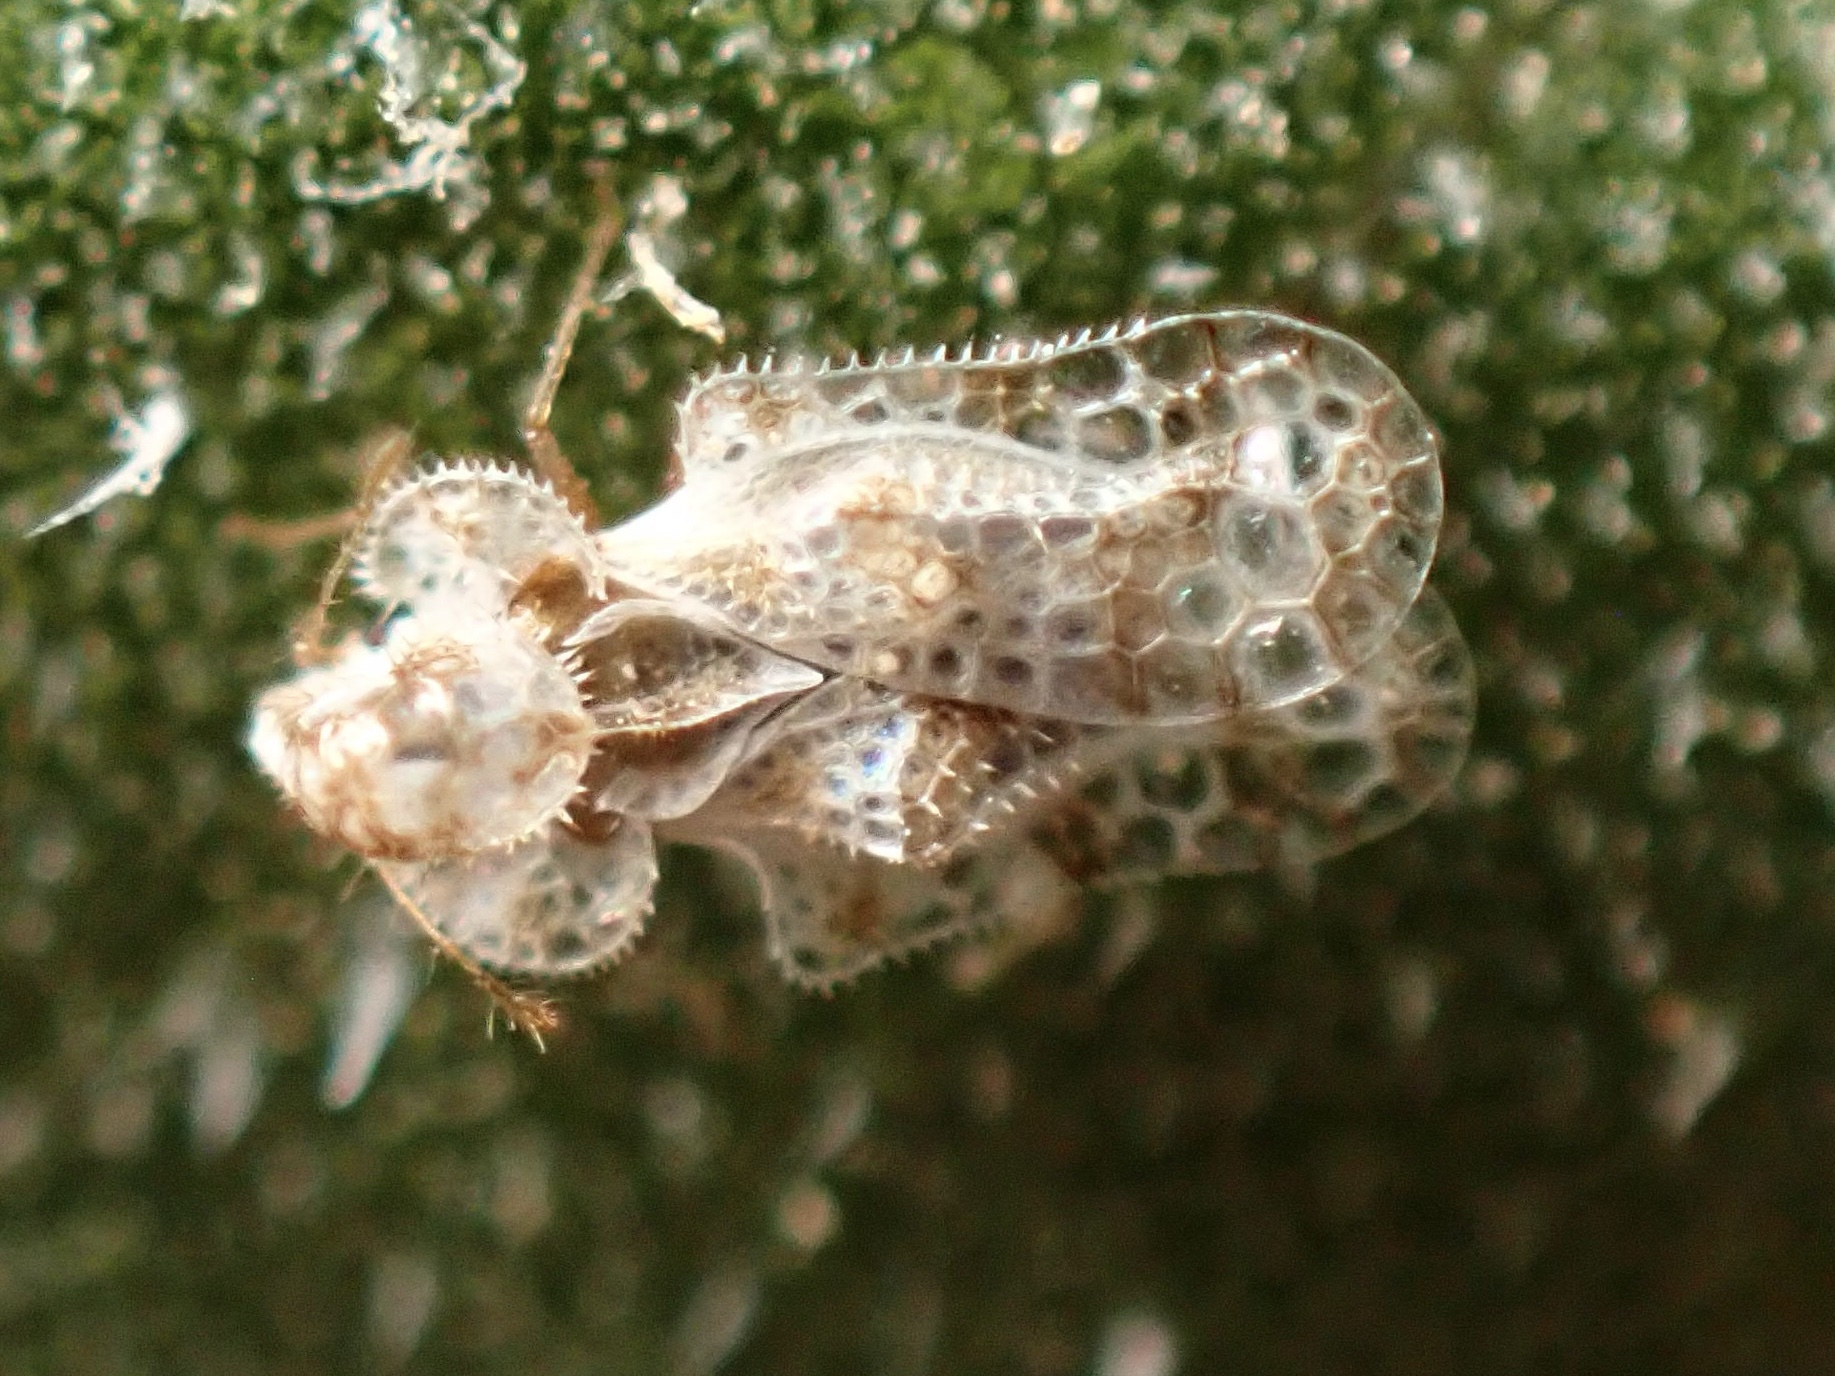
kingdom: Animalia
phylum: Arthropoda
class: Insecta
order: Hemiptera
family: Tingidae
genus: Corythucha
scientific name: Corythucha morrilli
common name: Morrill lace bug
